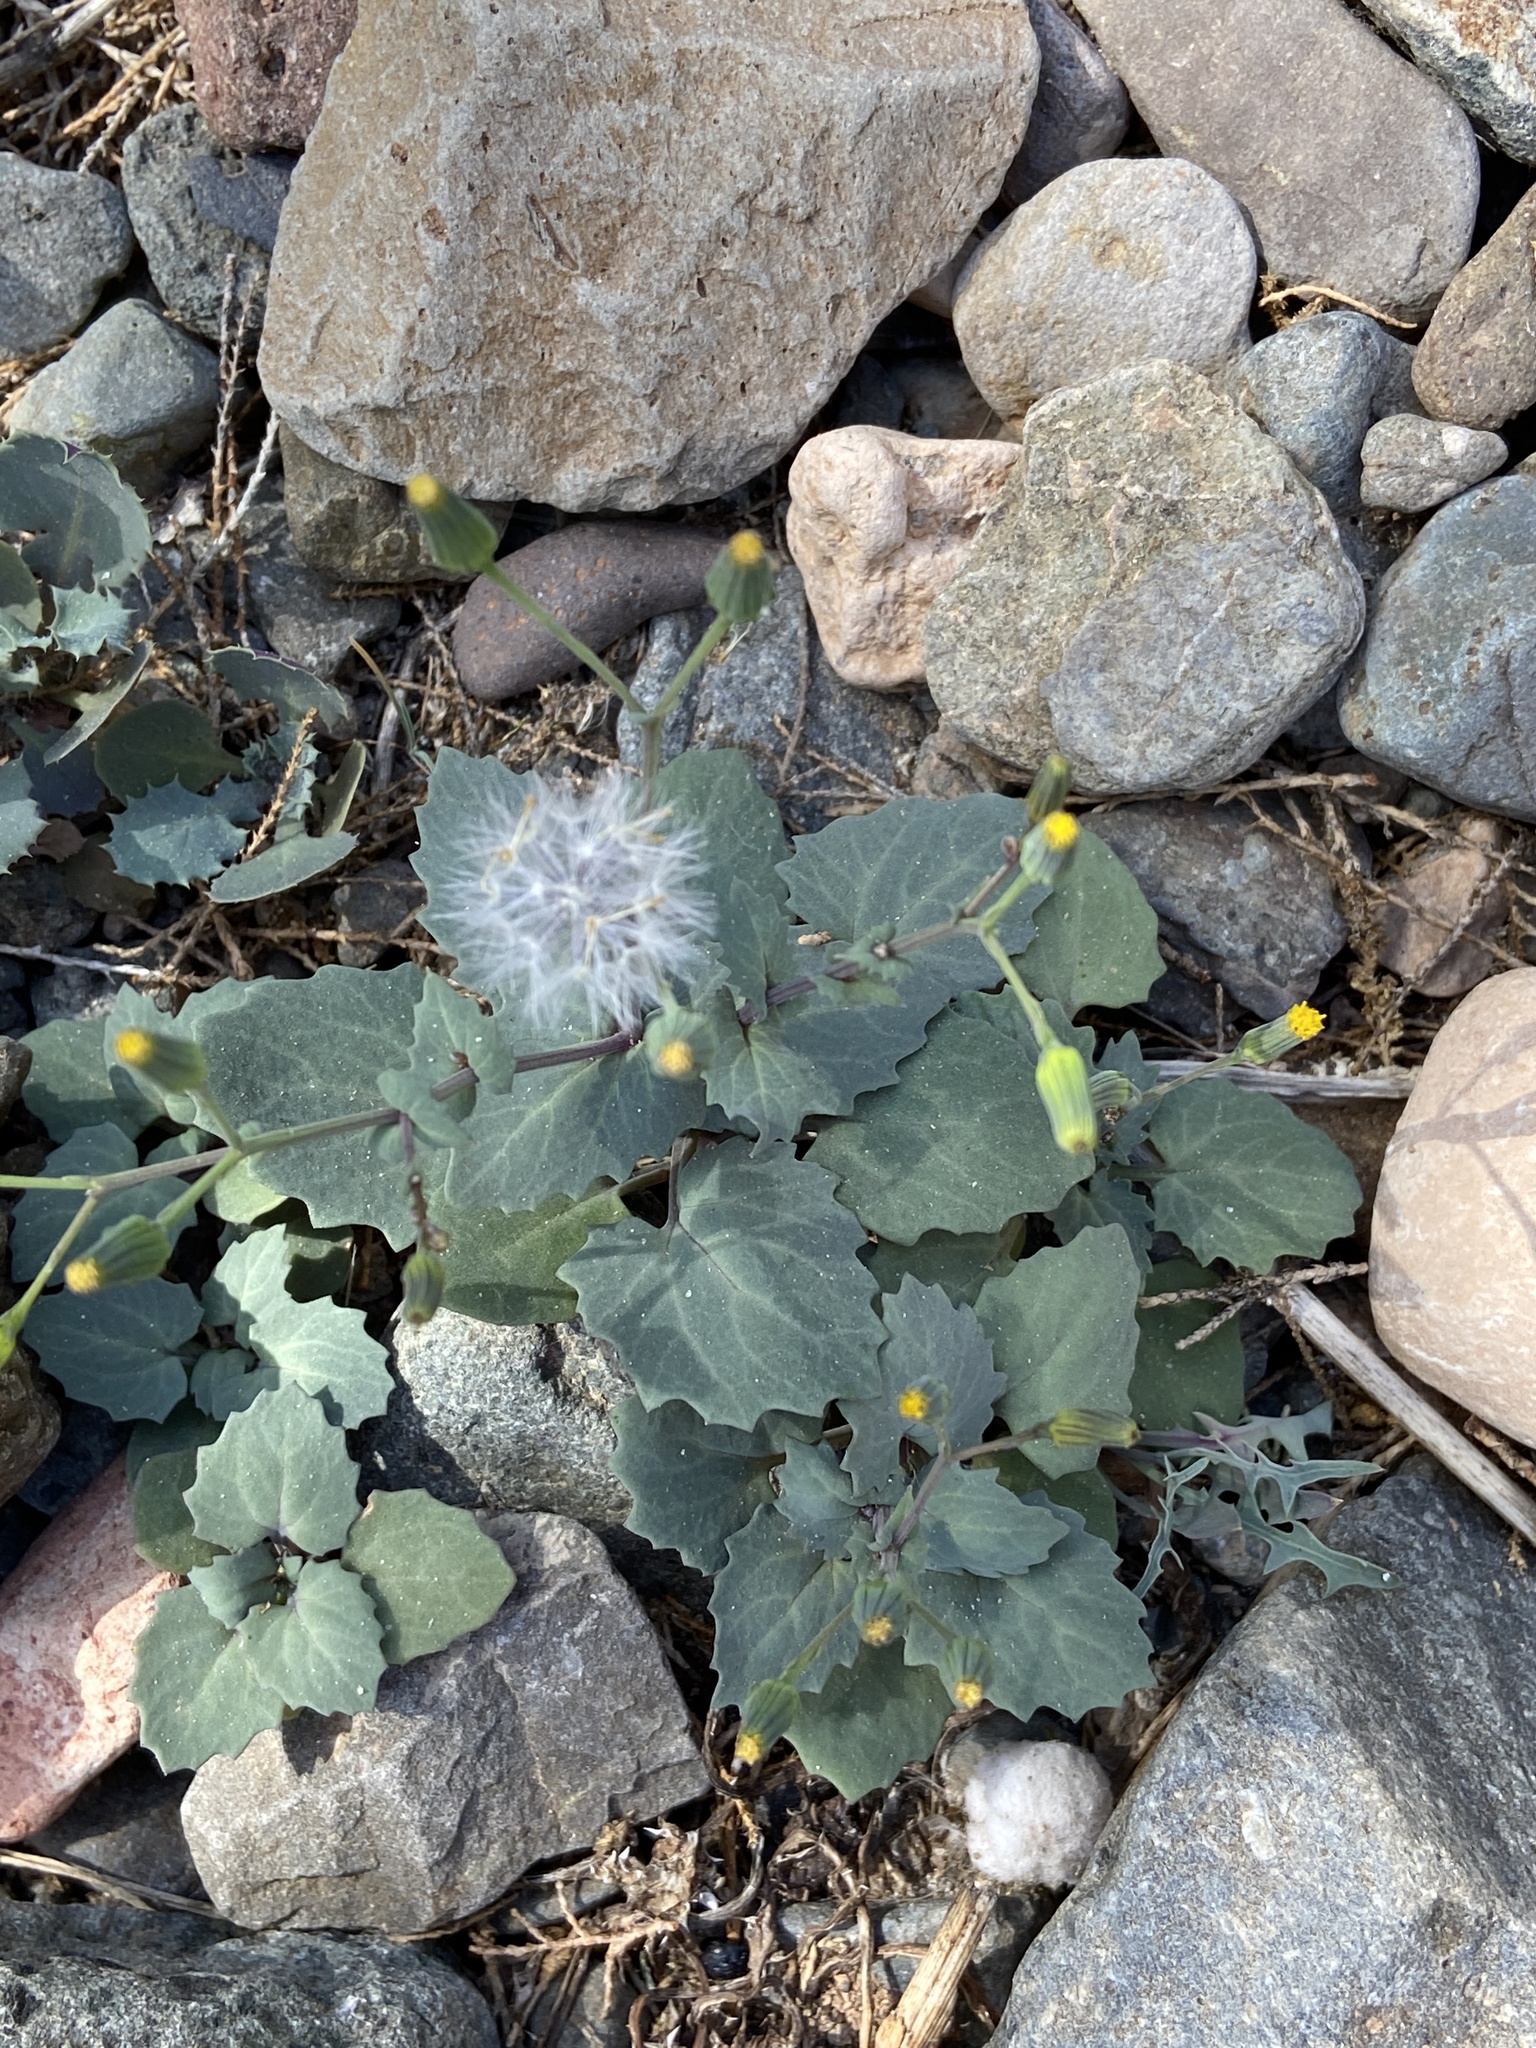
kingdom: Plantae
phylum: Tracheophyta
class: Magnoliopsida
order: Asterales
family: Asteraceae
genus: Senecio
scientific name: Senecio flavus
